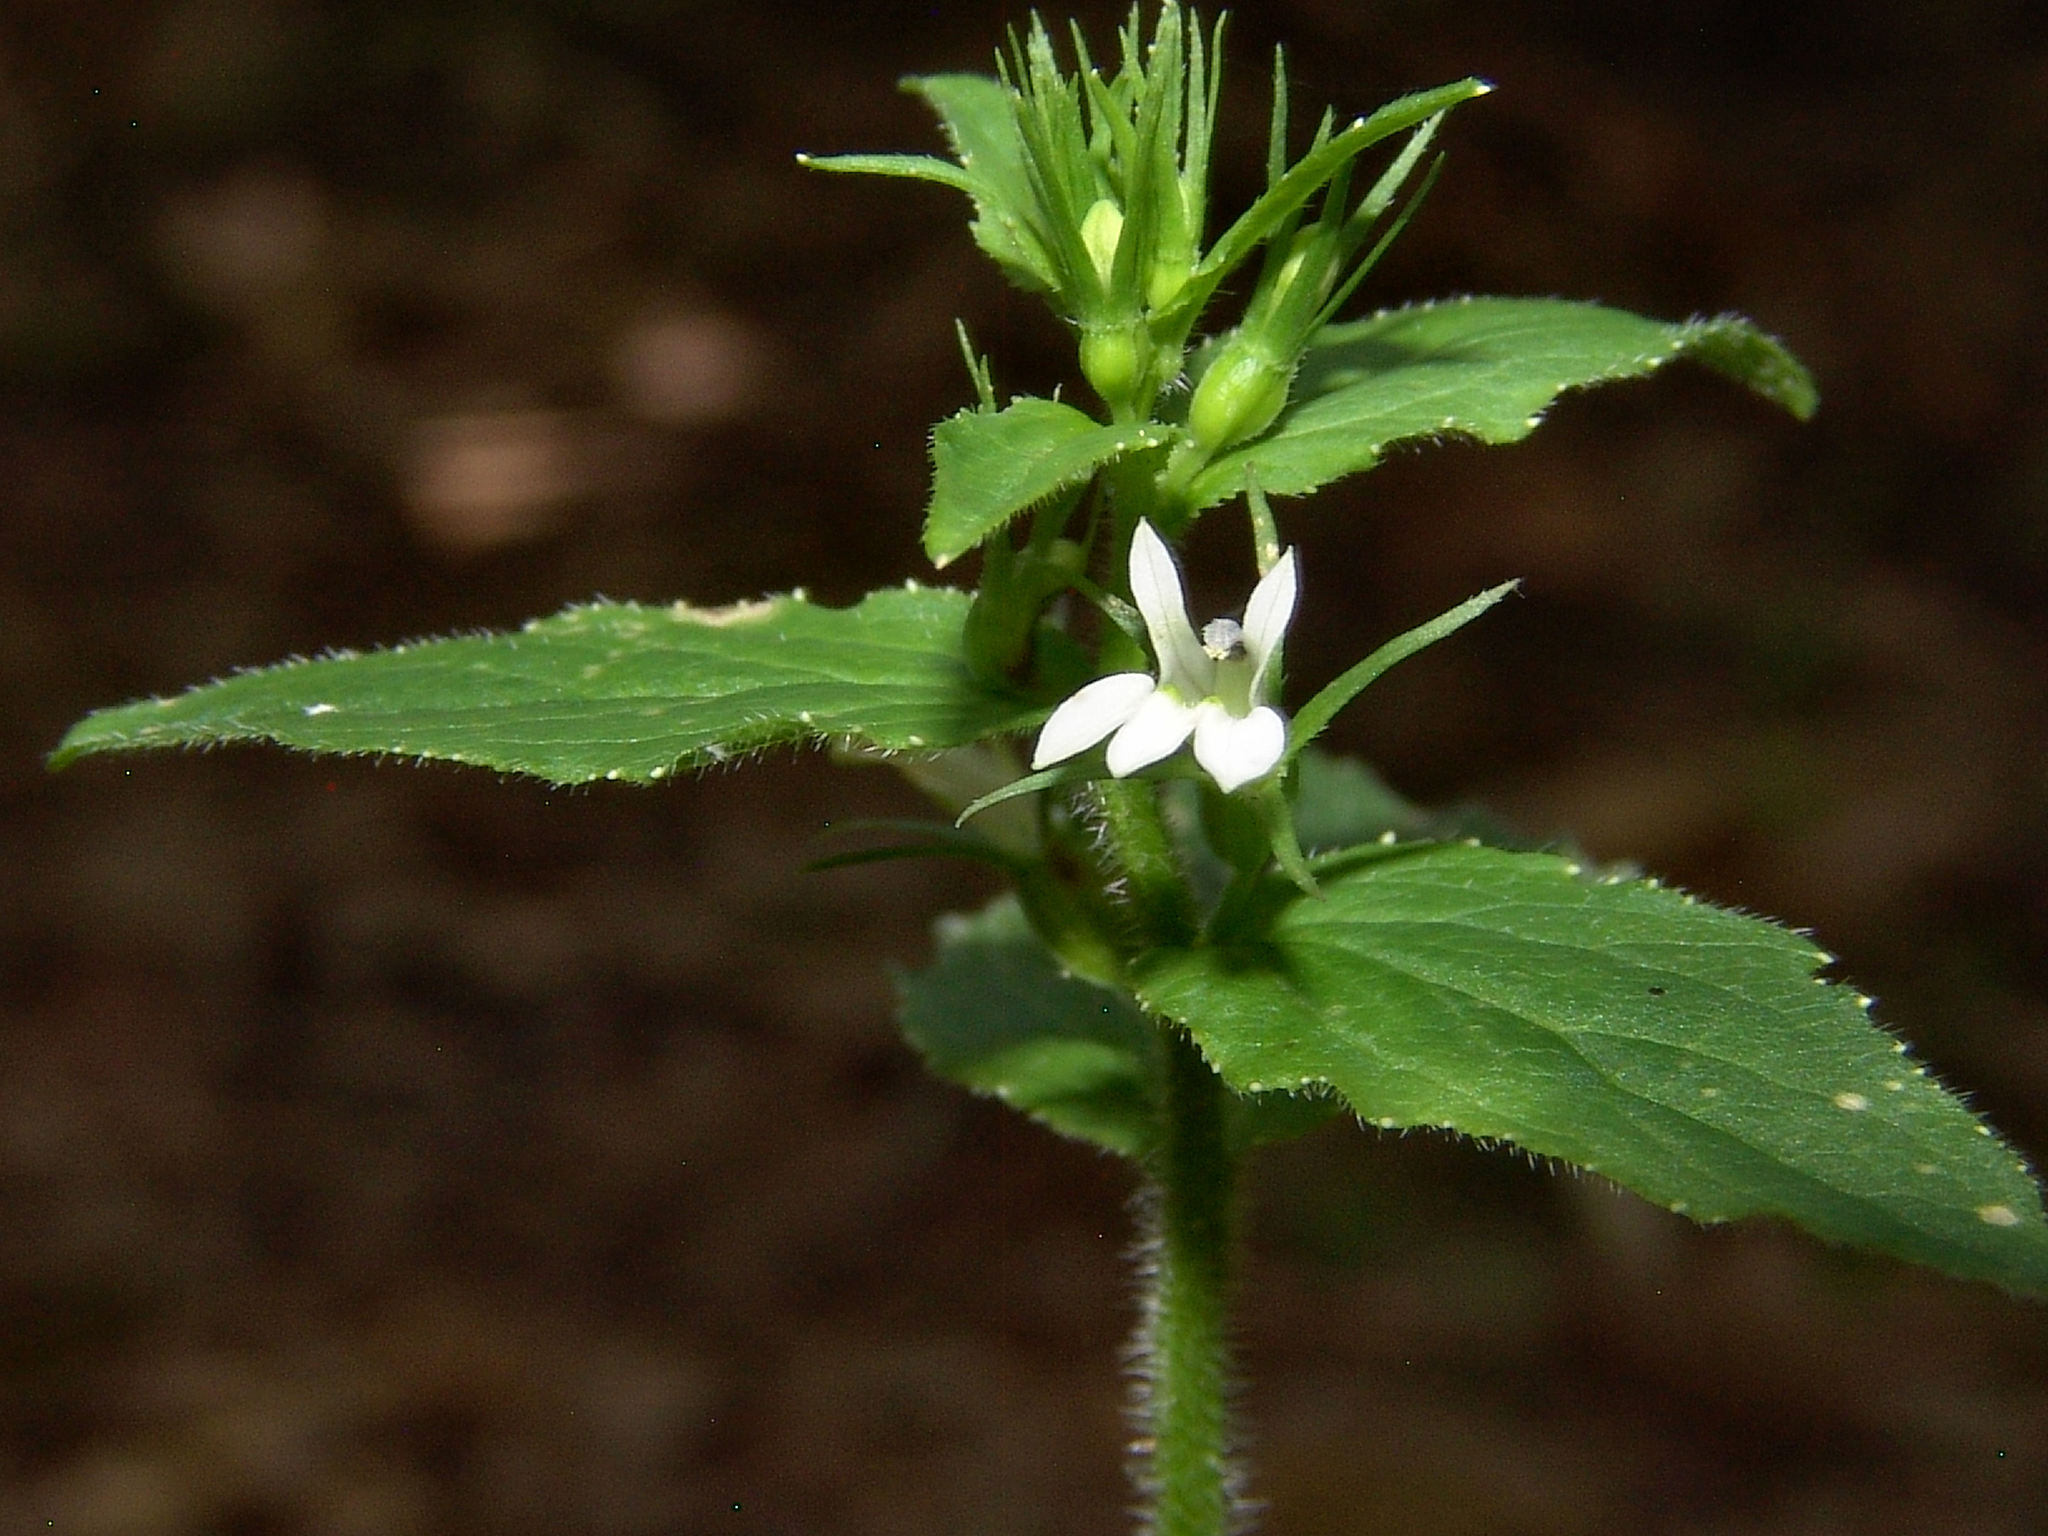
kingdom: Plantae
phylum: Tracheophyta
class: Magnoliopsida
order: Asterales
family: Campanulaceae
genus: Lobelia
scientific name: Lobelia inflata
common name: Indian tobacco
